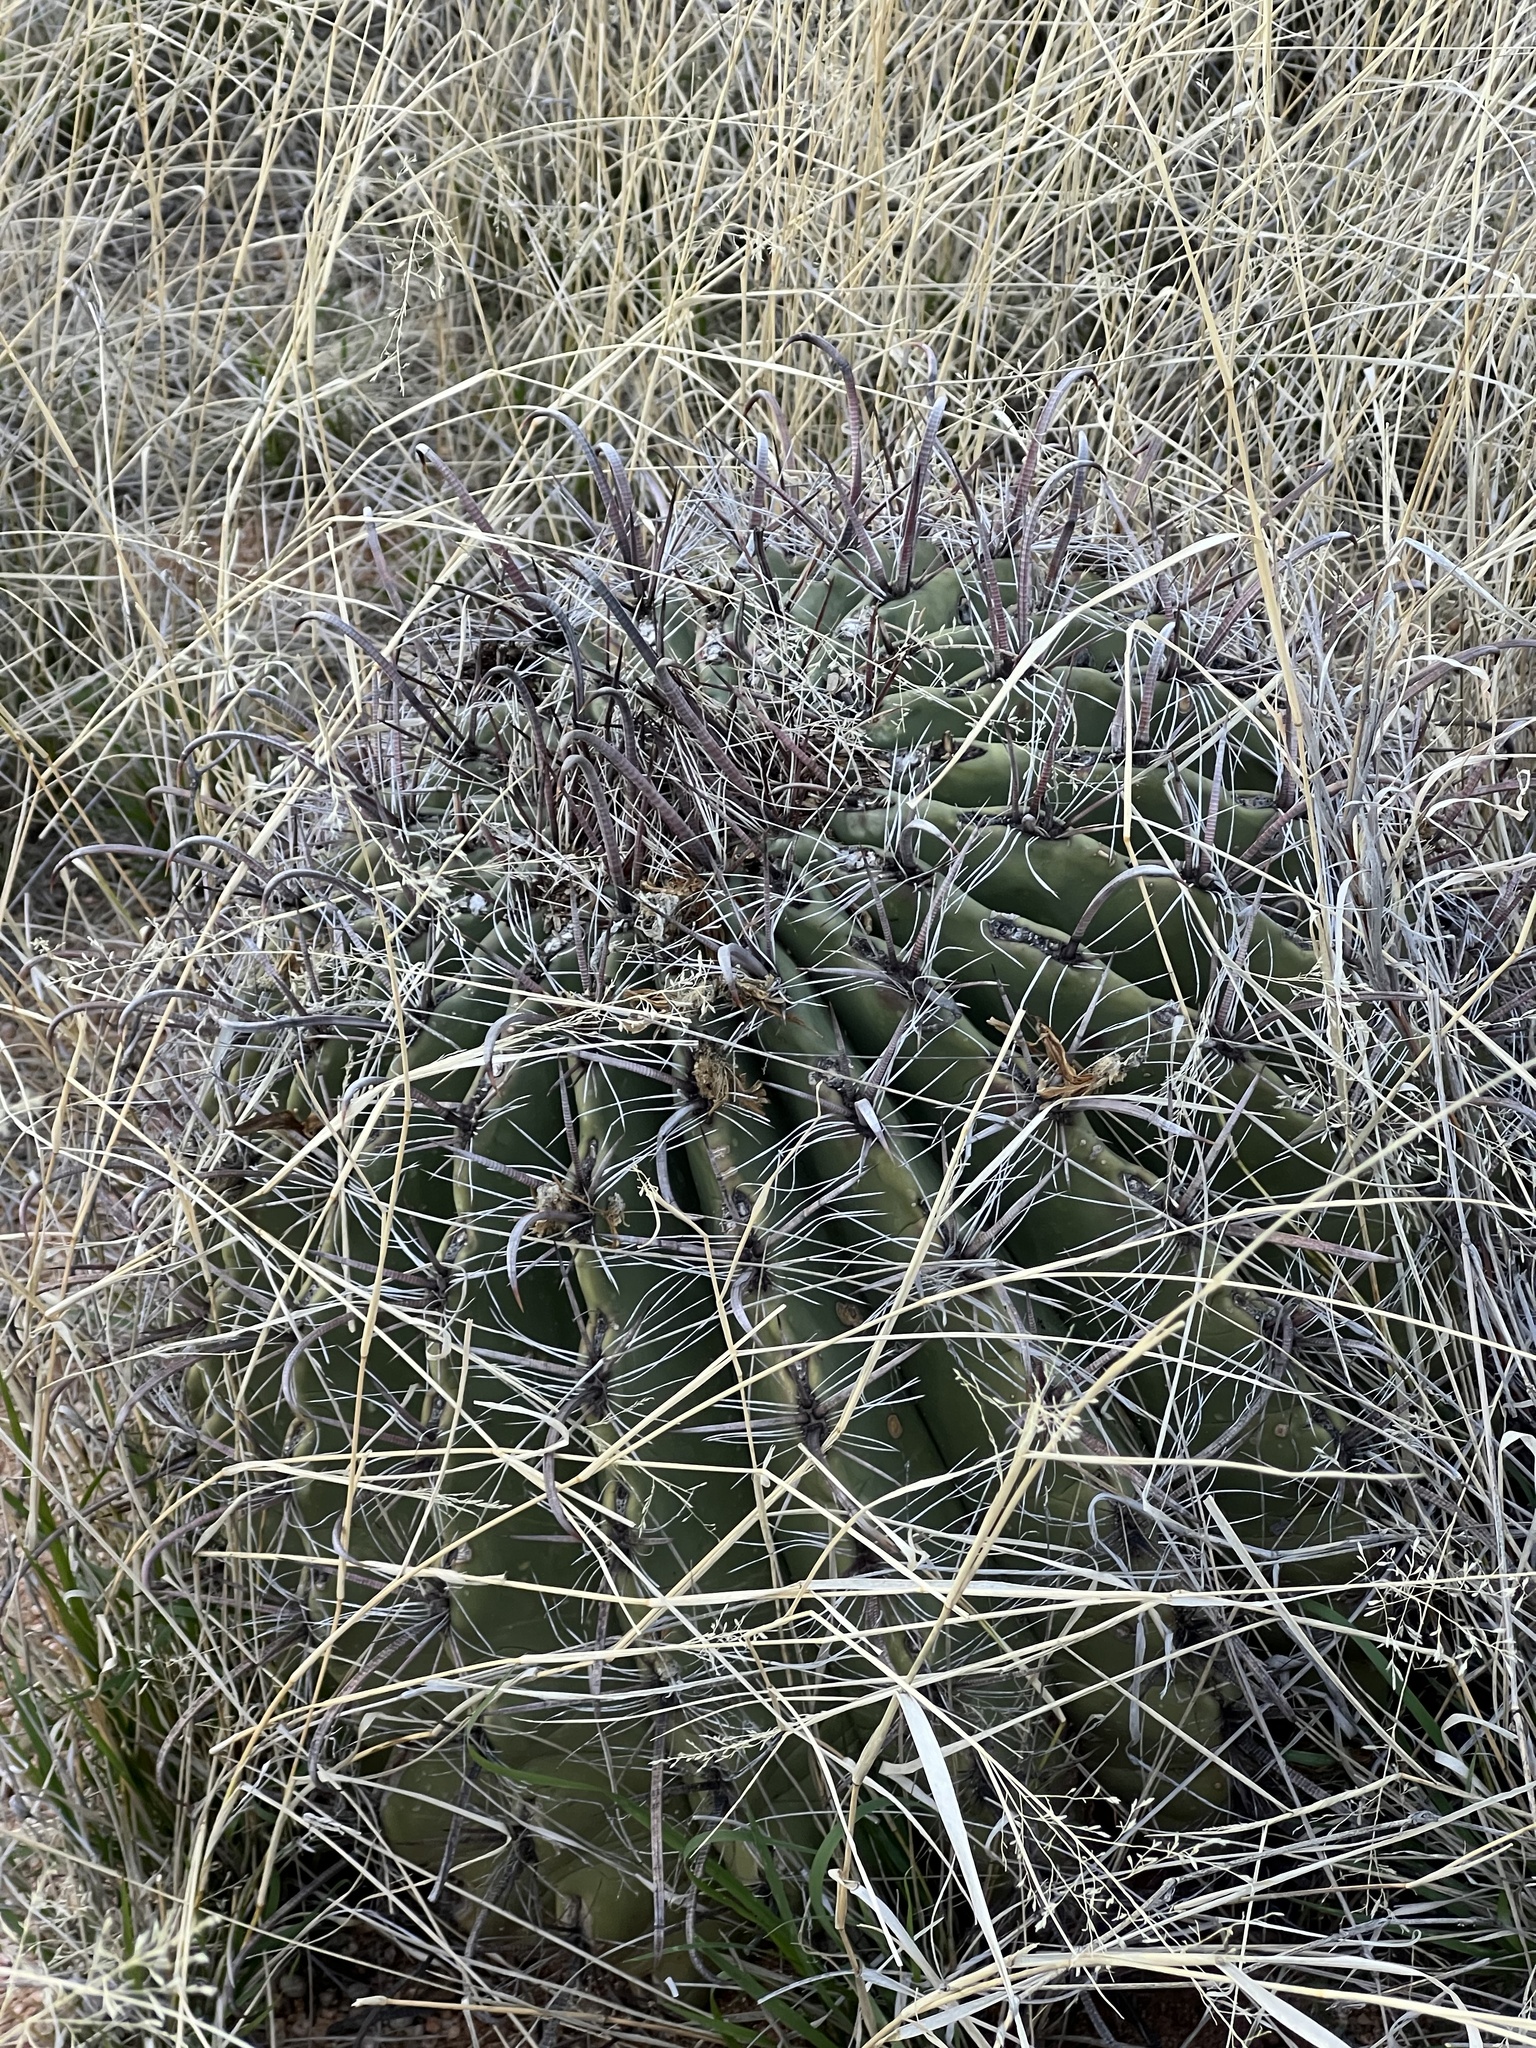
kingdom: Plantae
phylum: Tracheophyta
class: Magnoliopsida
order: Caryophyllales
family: Cactaceae
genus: Ferocactus
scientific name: Ferocactus wislizeni
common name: Candy barrel cactus
